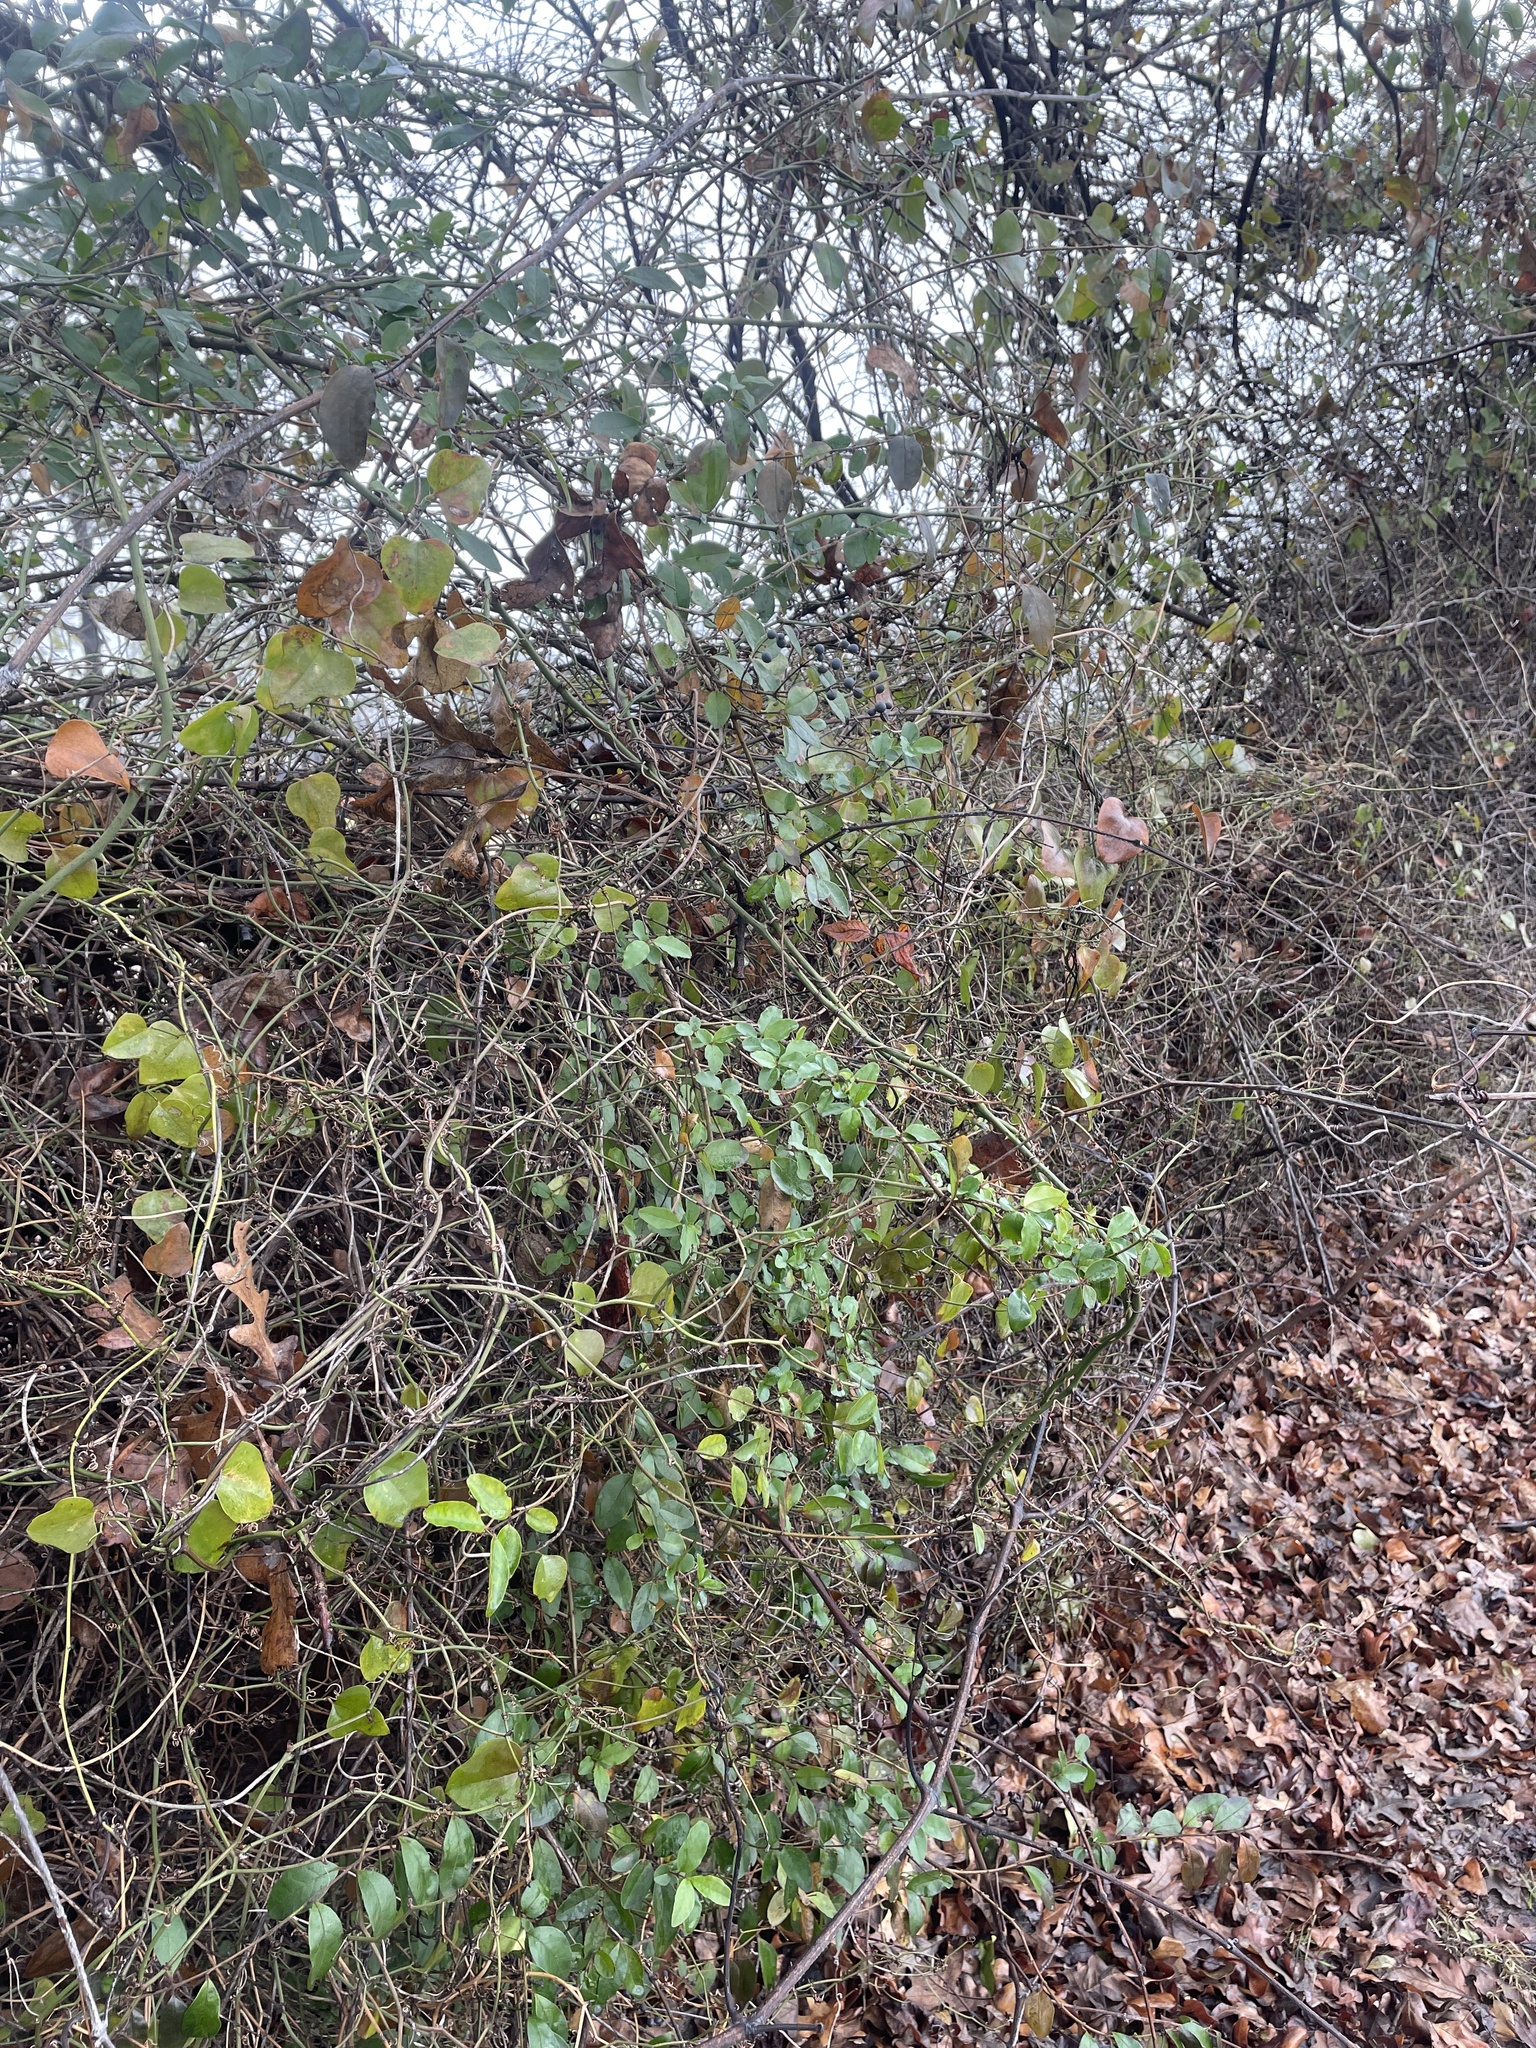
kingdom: Plantae
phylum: Tracheophyta
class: Magnoliopsida
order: Lamiales
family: Oleaceae
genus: Ligustrum
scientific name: Ligustrum sinense
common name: Chinese privet
